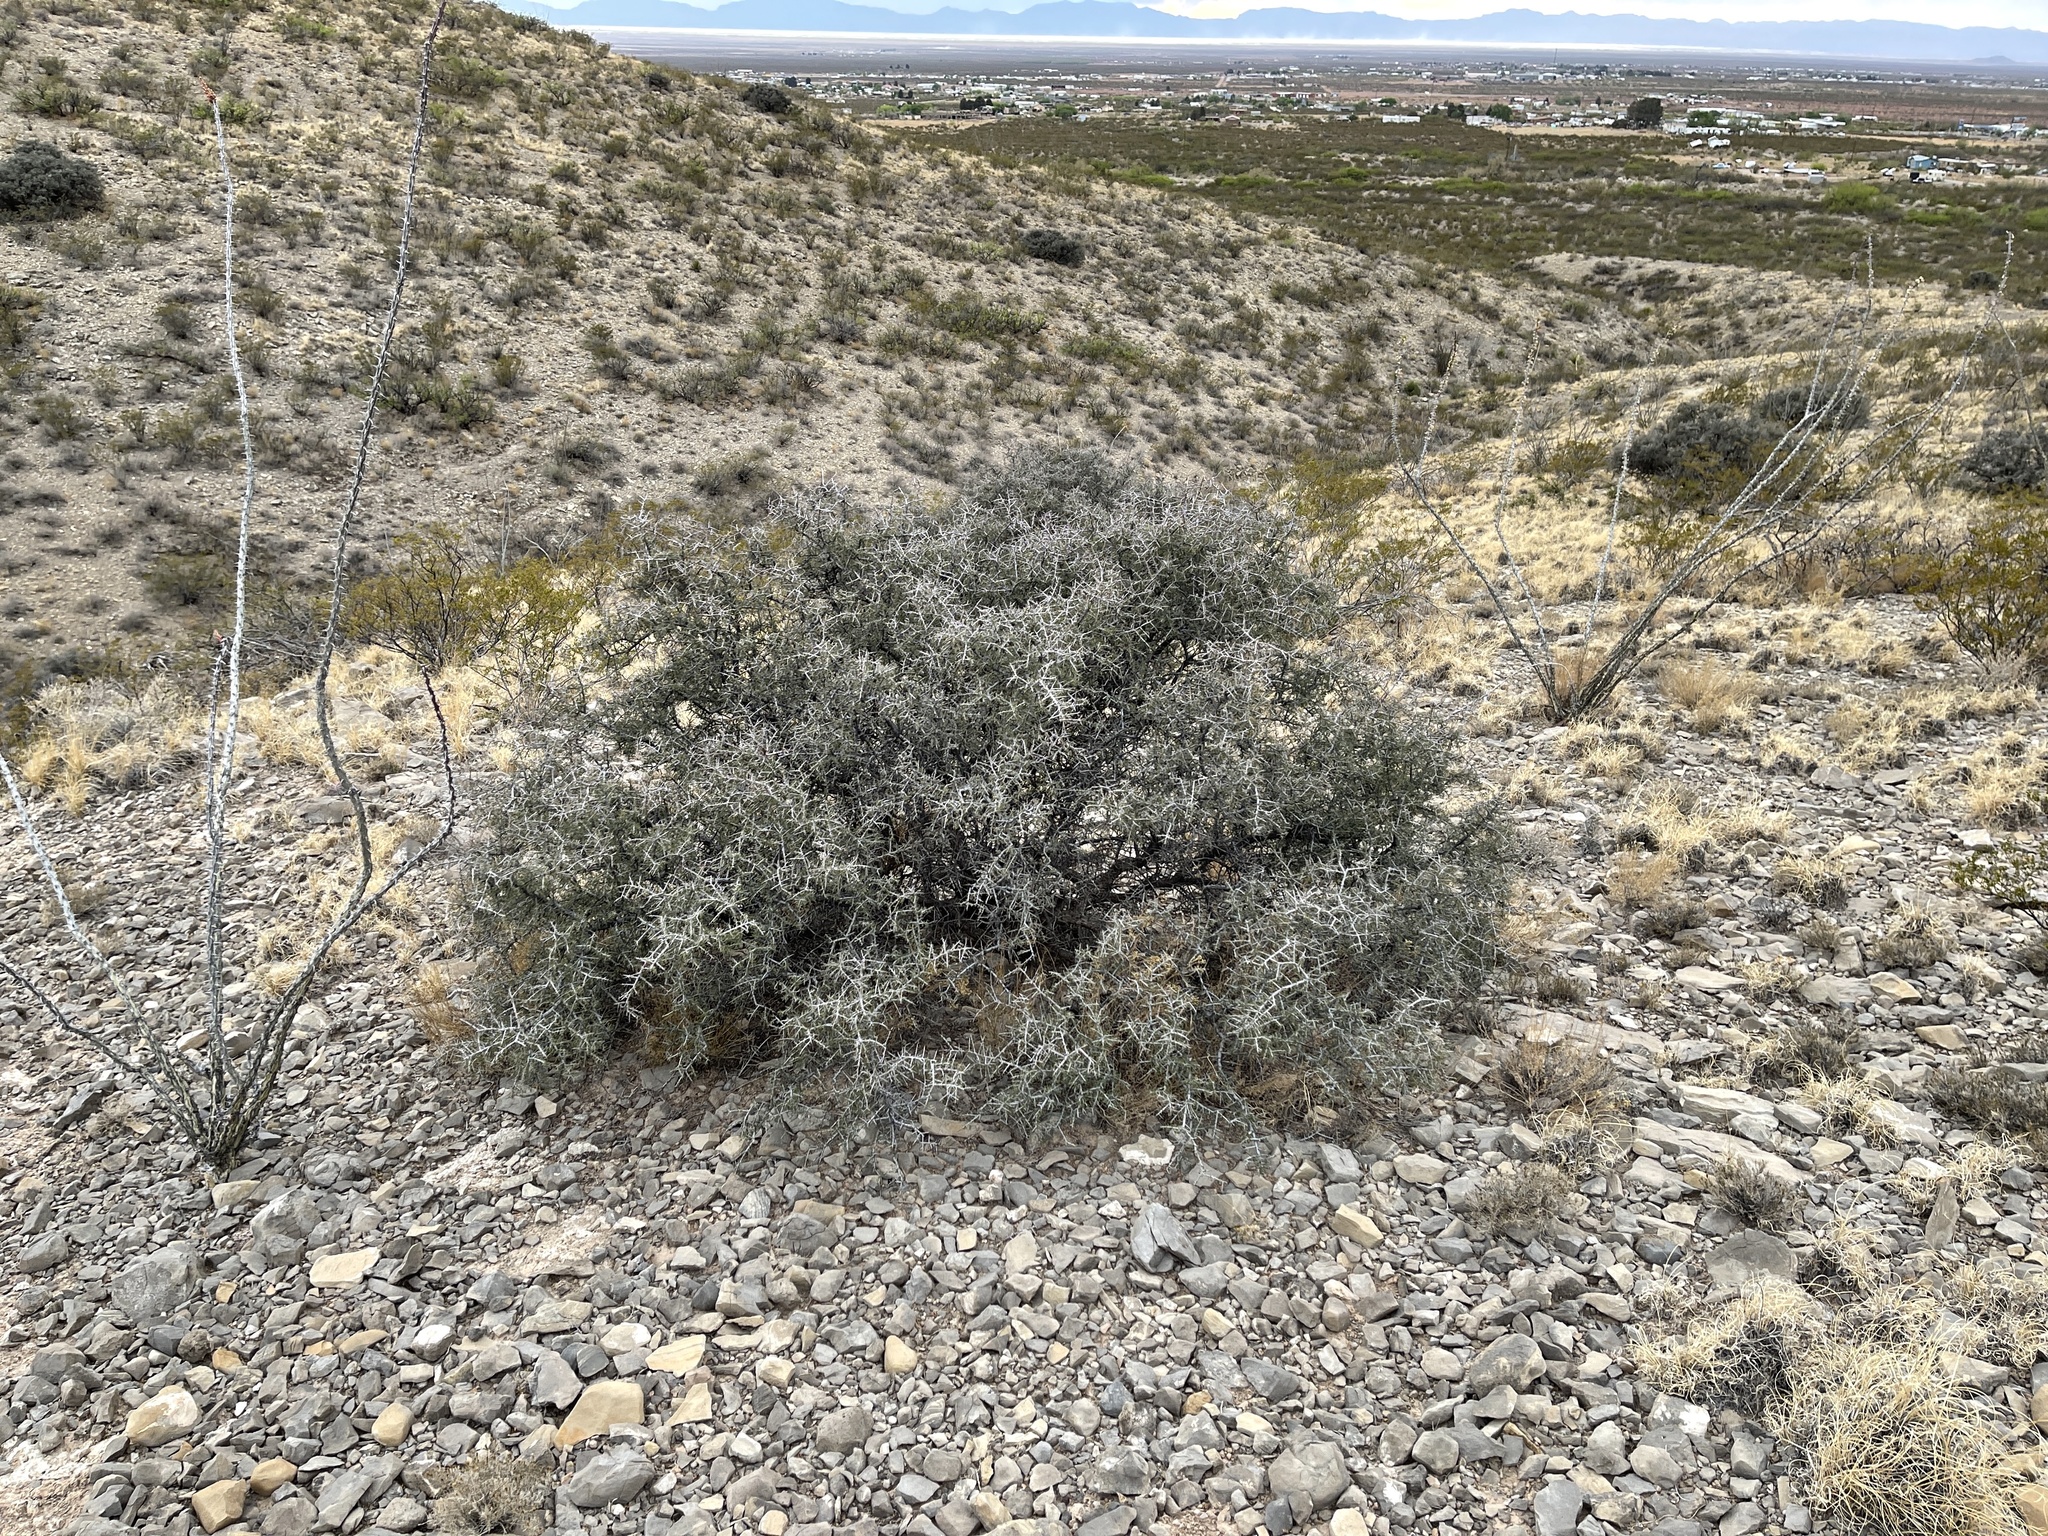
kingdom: Plantae
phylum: Tracheophyta
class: Magnoliopsida
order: Rosales
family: Rhamnaceae
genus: Condalia
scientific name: Condalia warnockii
